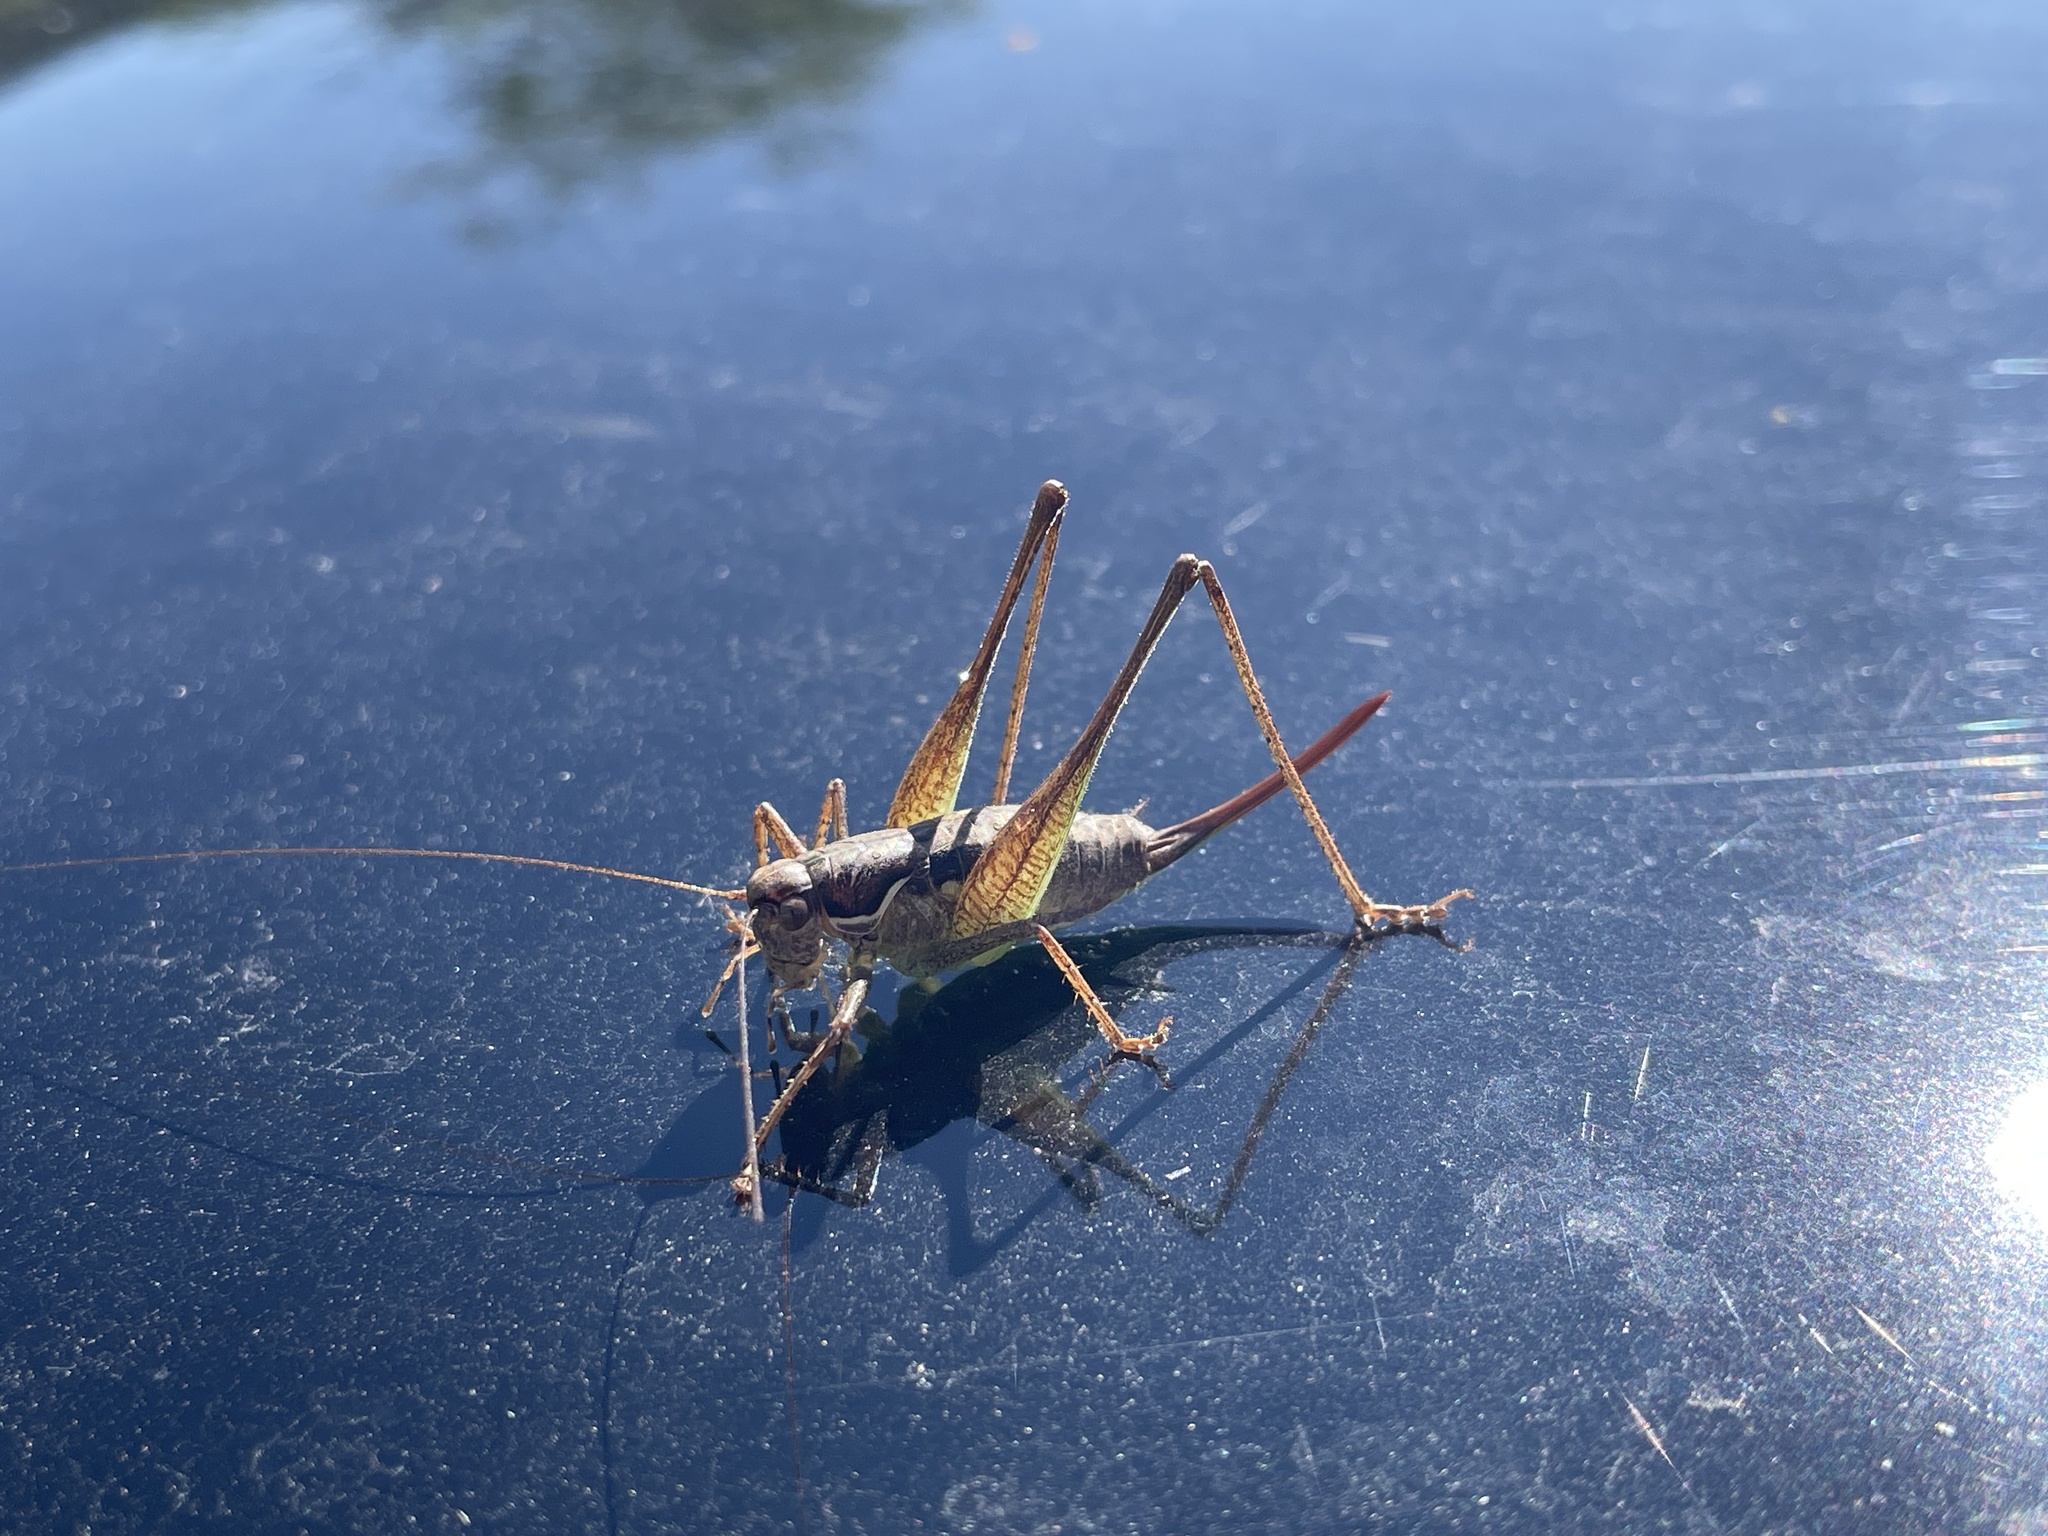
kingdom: Animalia
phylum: Arthropoda
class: Insecta
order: Orthoptera
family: Tettigoniidae
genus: Pachytrachis
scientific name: Pachytrachis gracilis
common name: Graceful bush-cricket
